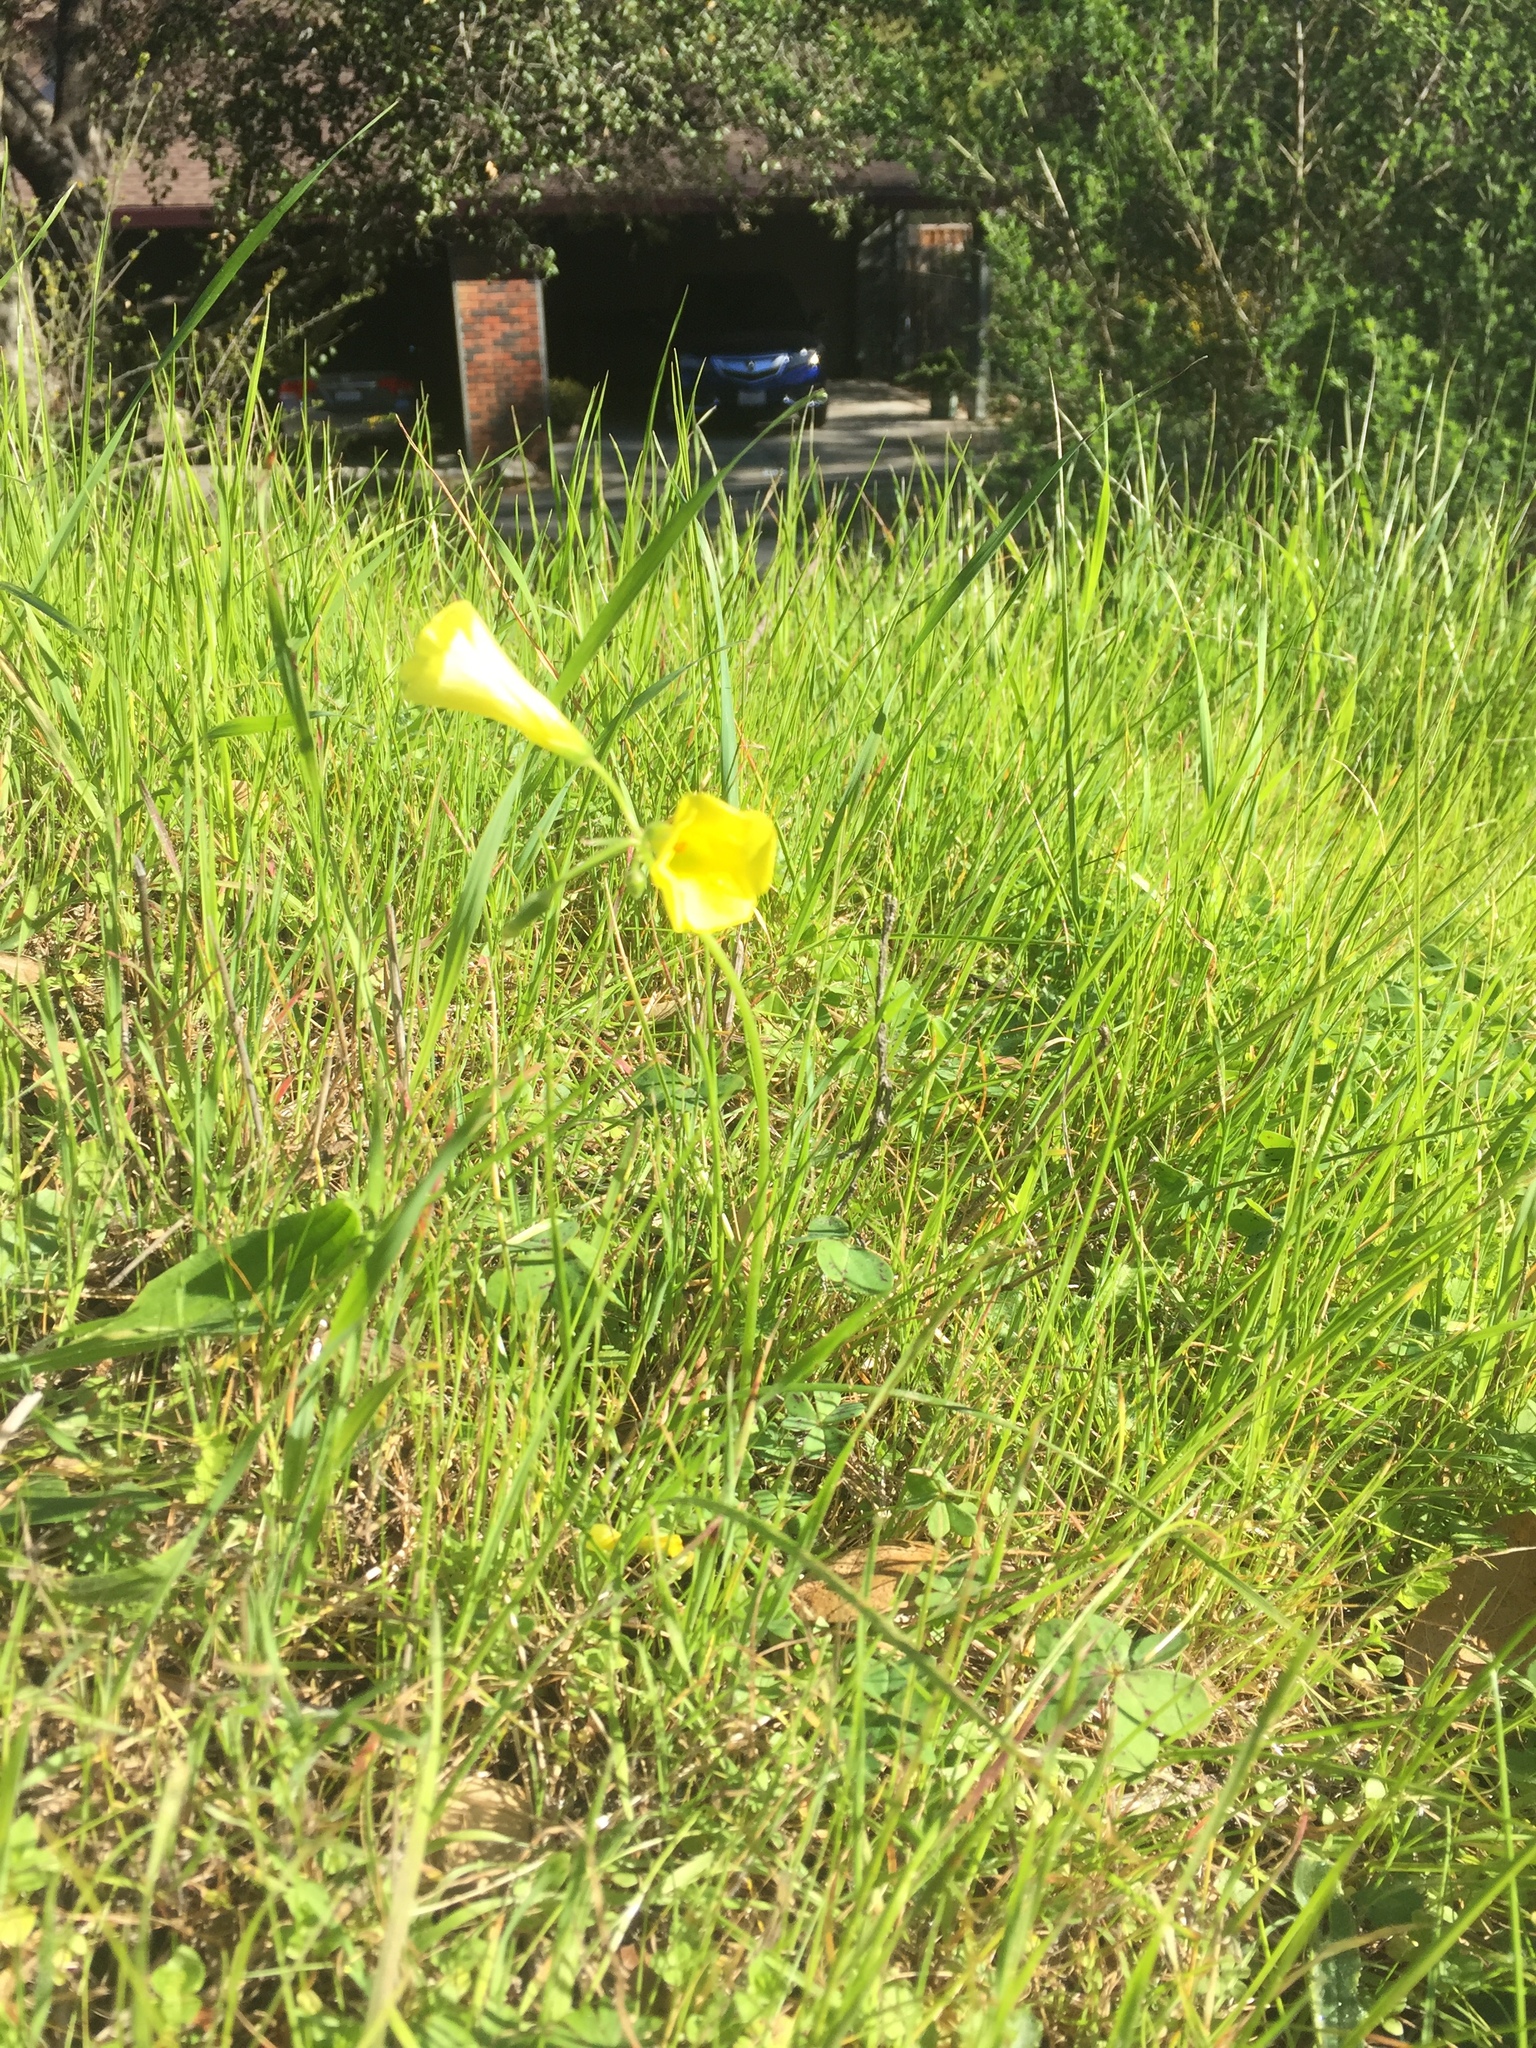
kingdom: Plantae
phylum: Tracheophyta
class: Magnoliopsida
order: Oxalidales
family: Oxalidaceae
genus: Oxalis
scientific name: Oxalis pes-caprae
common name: Bermuda-buttercup
